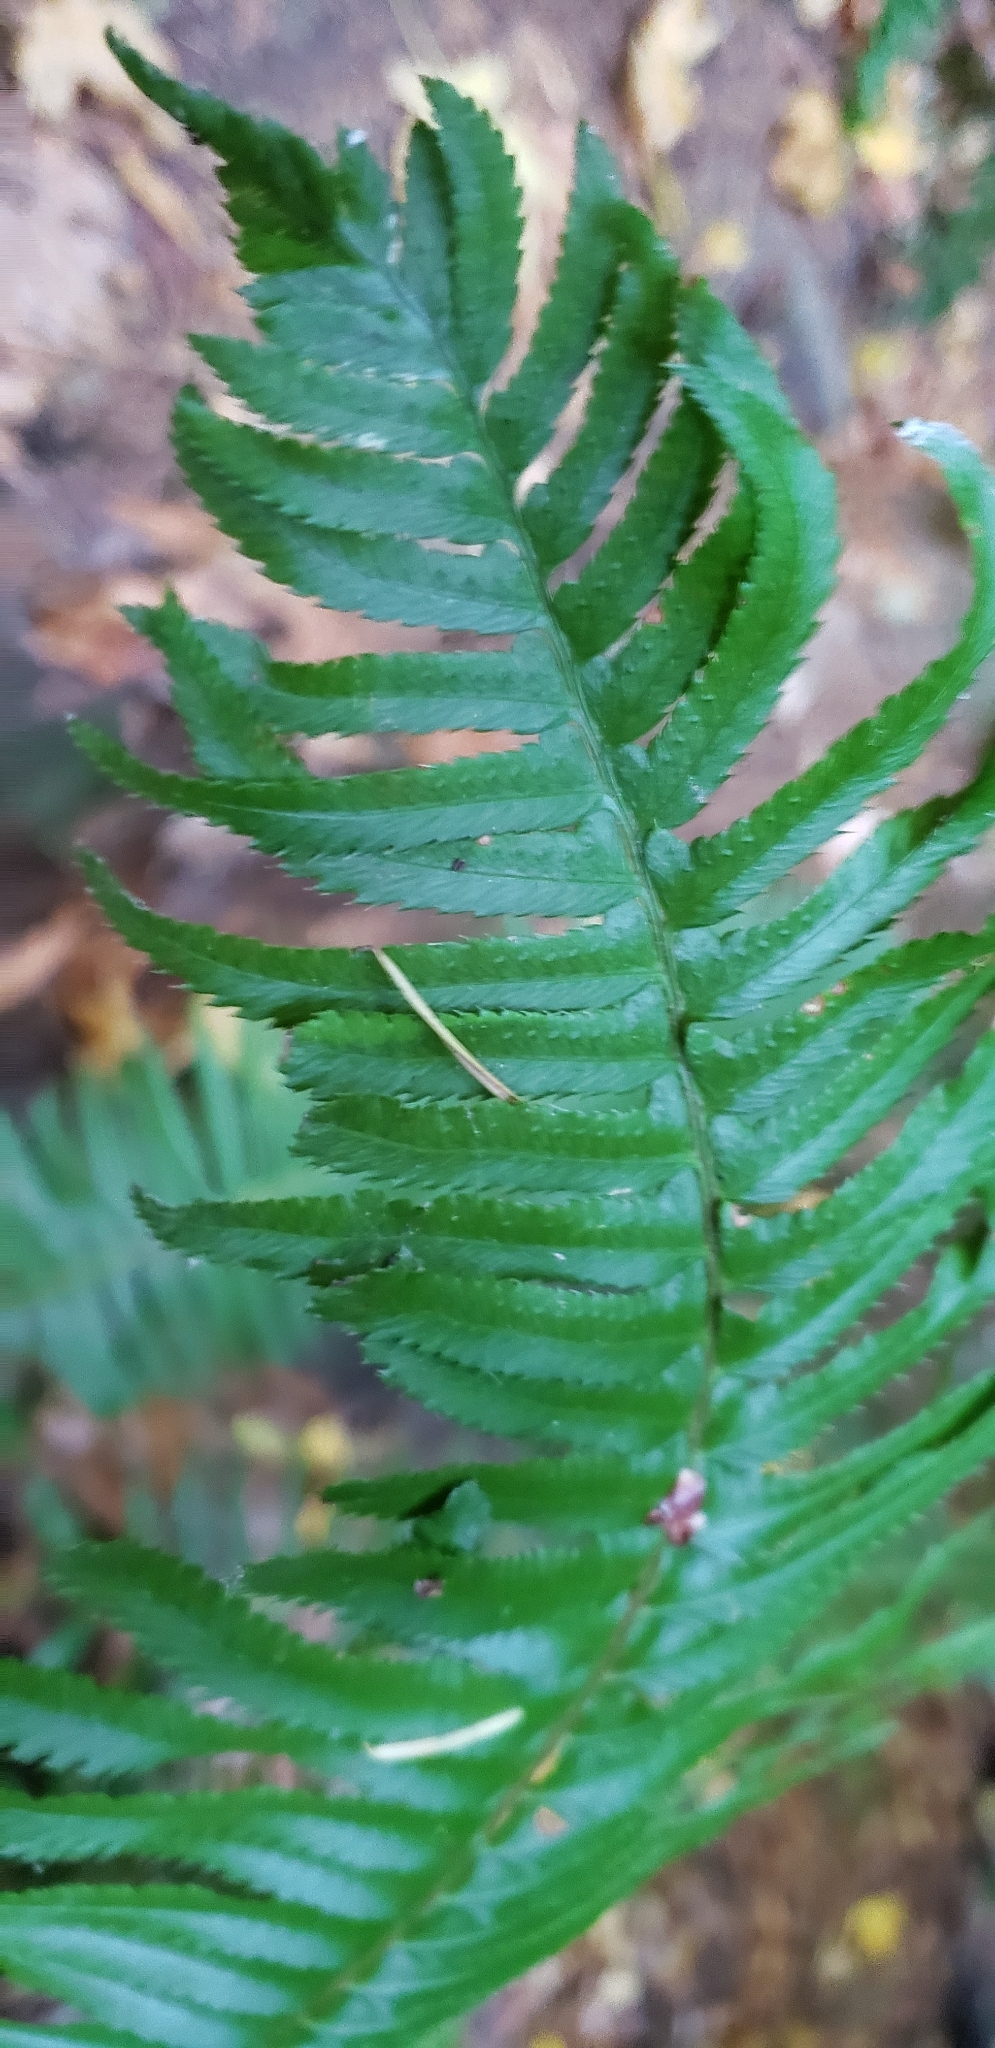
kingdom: Plantae
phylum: Tracheophyta
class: Polypodiopsida
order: Polypodiales
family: Dryopteridaceae
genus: Polystichum
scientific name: Polystichum munitum
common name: Western sword-fern
